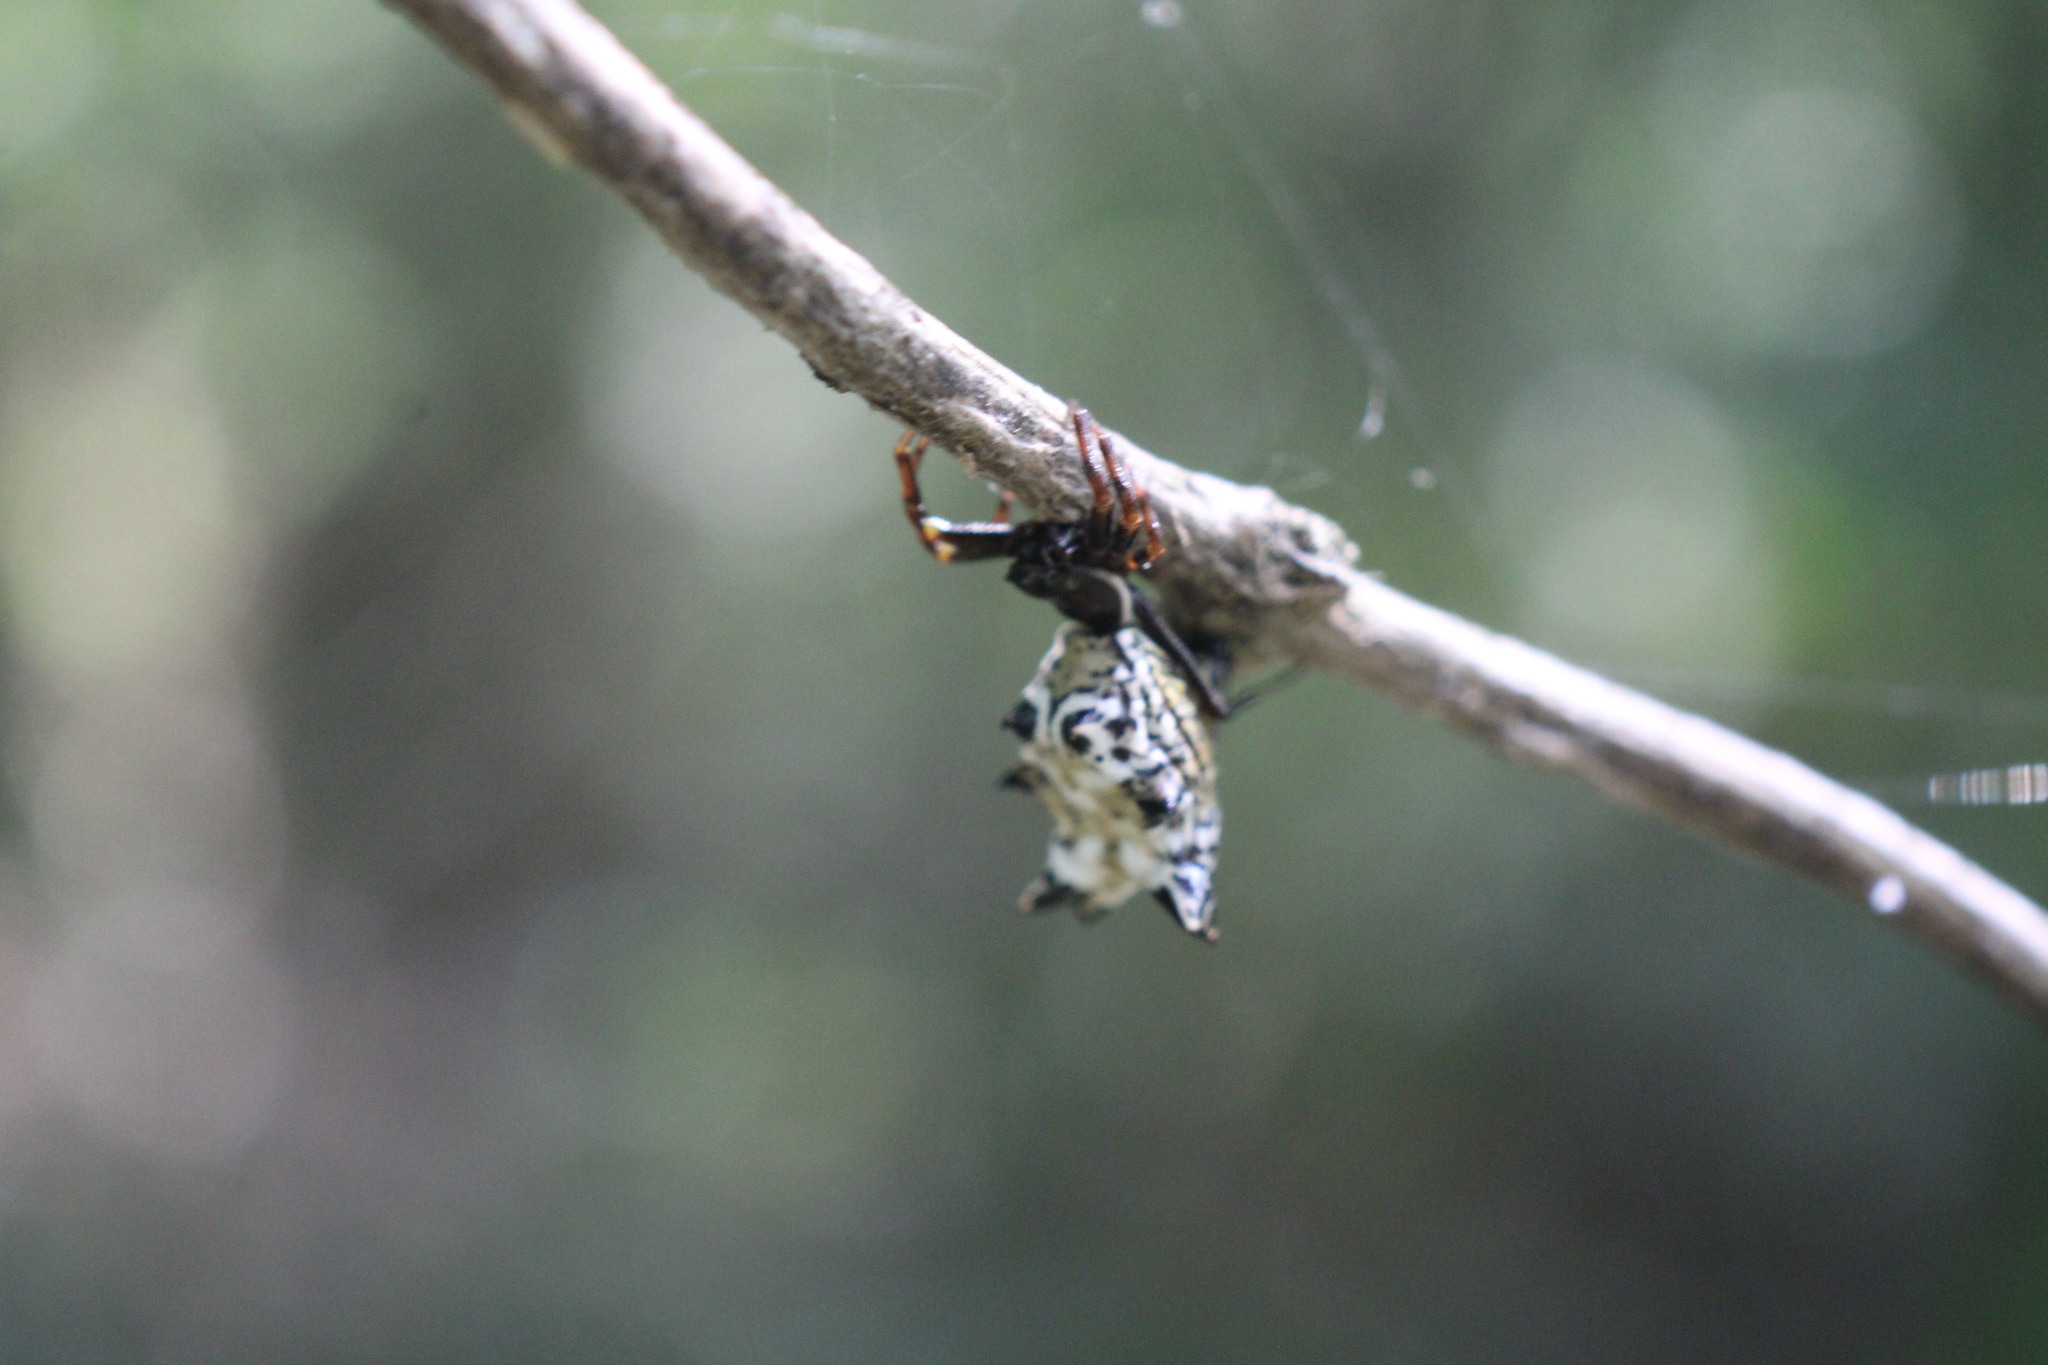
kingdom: Animalia
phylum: Arthropoda
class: Arachnida
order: Araneae
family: Araneidae
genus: Micrathena
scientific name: Micrathena gracilis
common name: Orb weavers
